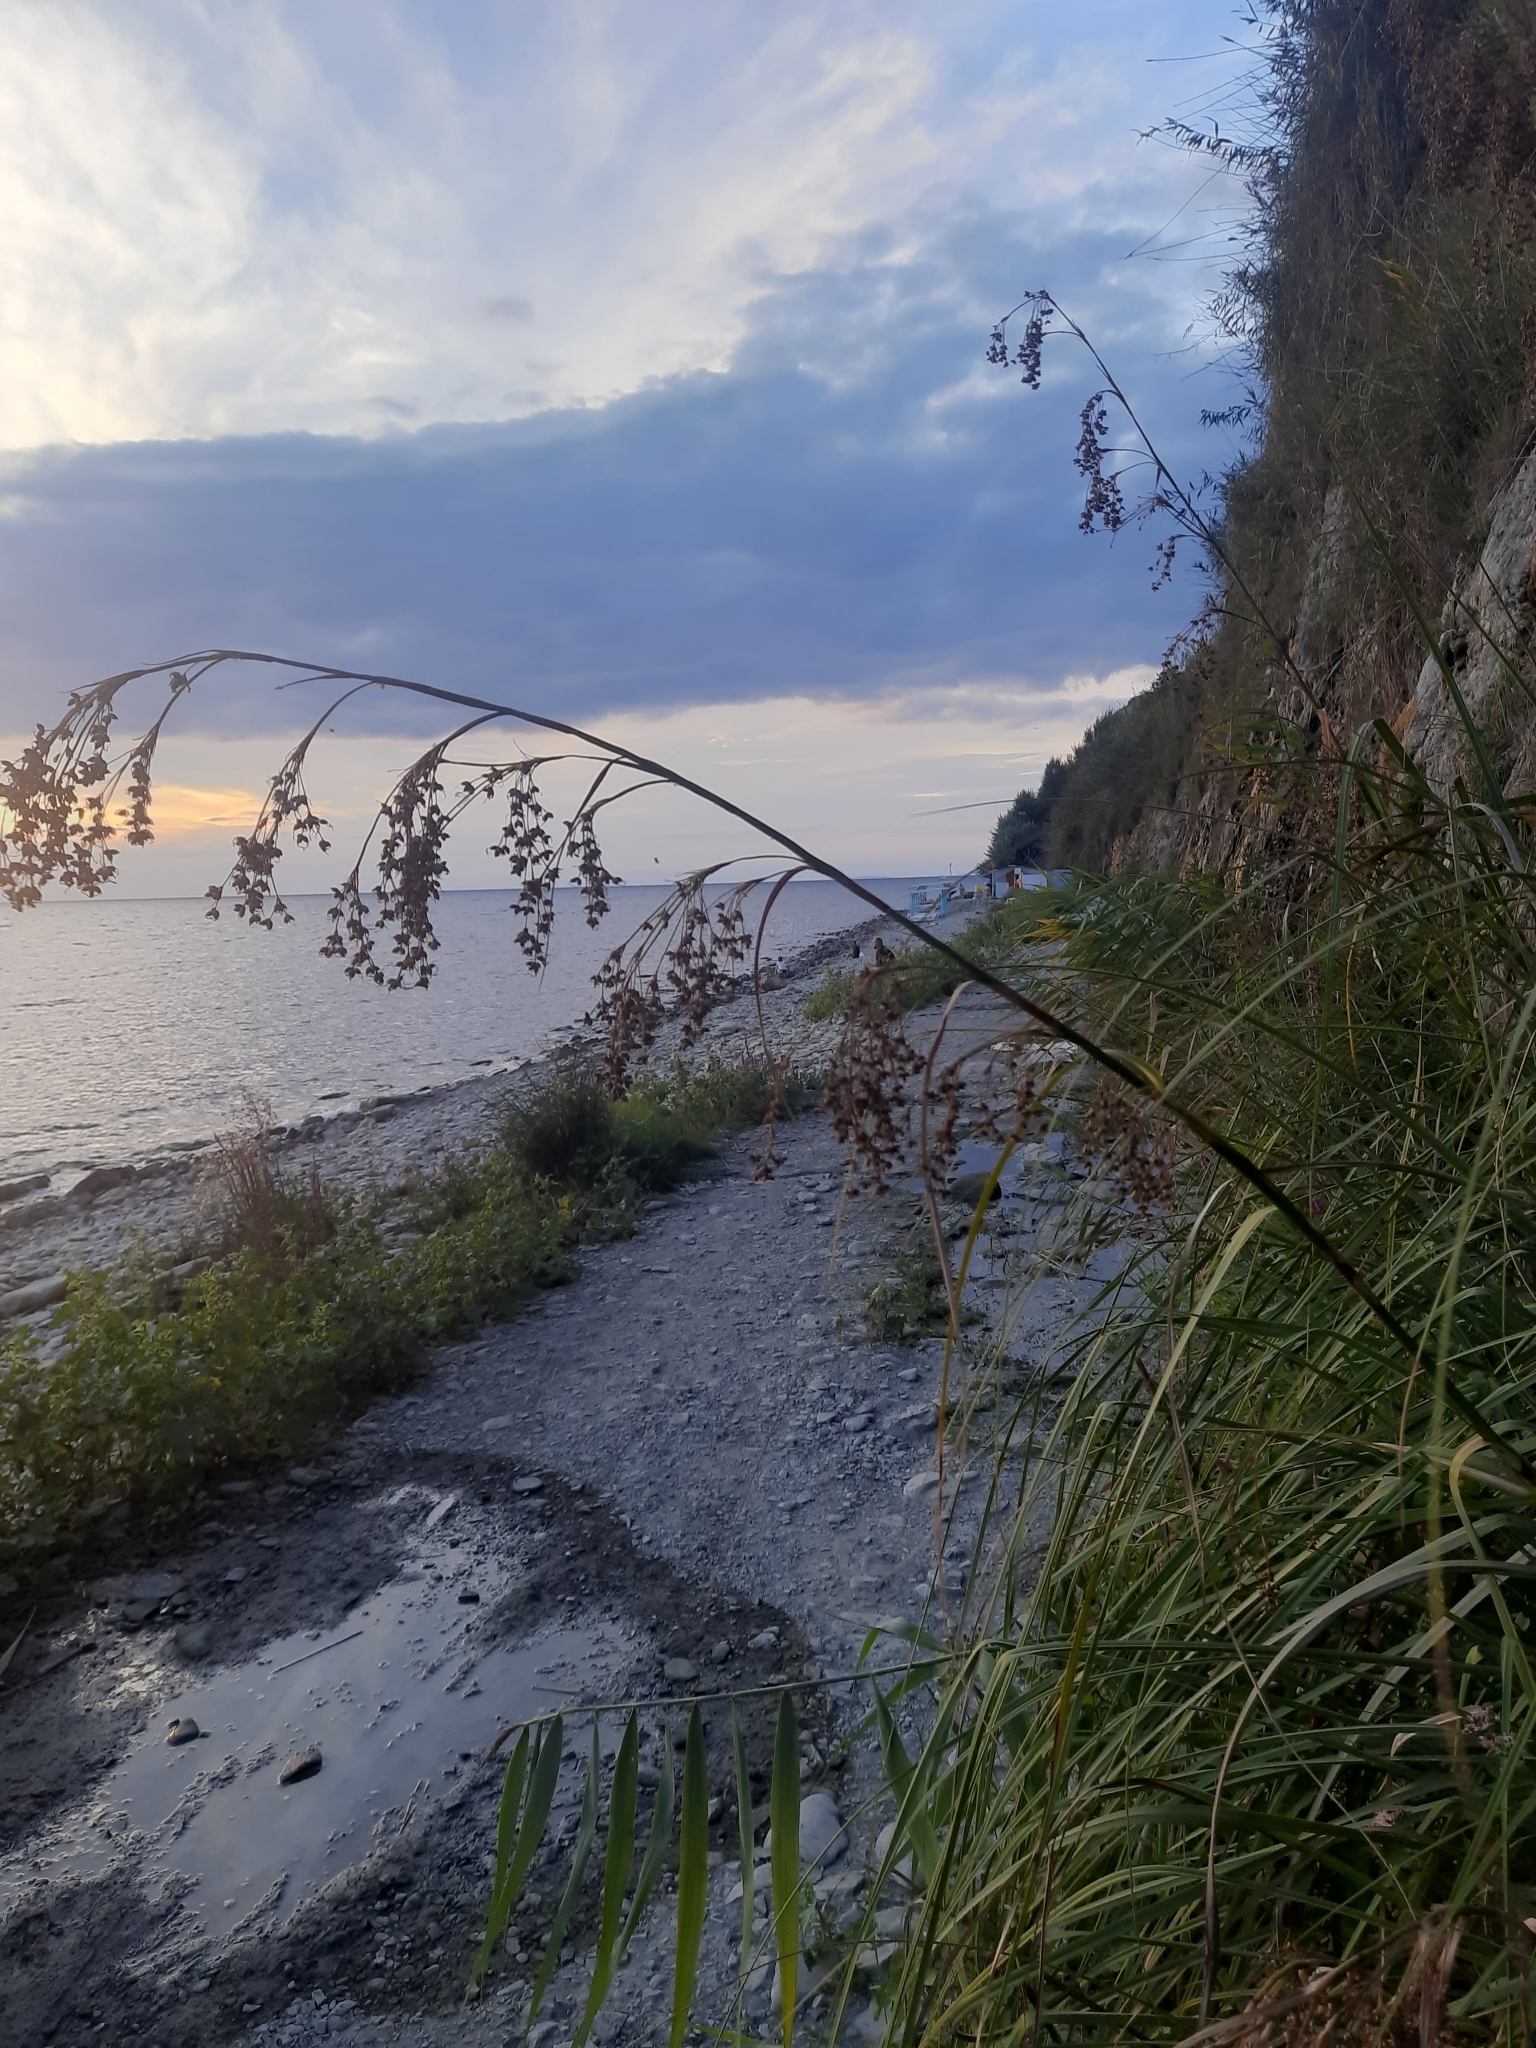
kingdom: Plantae
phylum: Tracheophyta
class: Liliopsida
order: Poales
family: Cyperaceae
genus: Cladium
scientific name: Cladium mariscus
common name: Great fen-sedge
